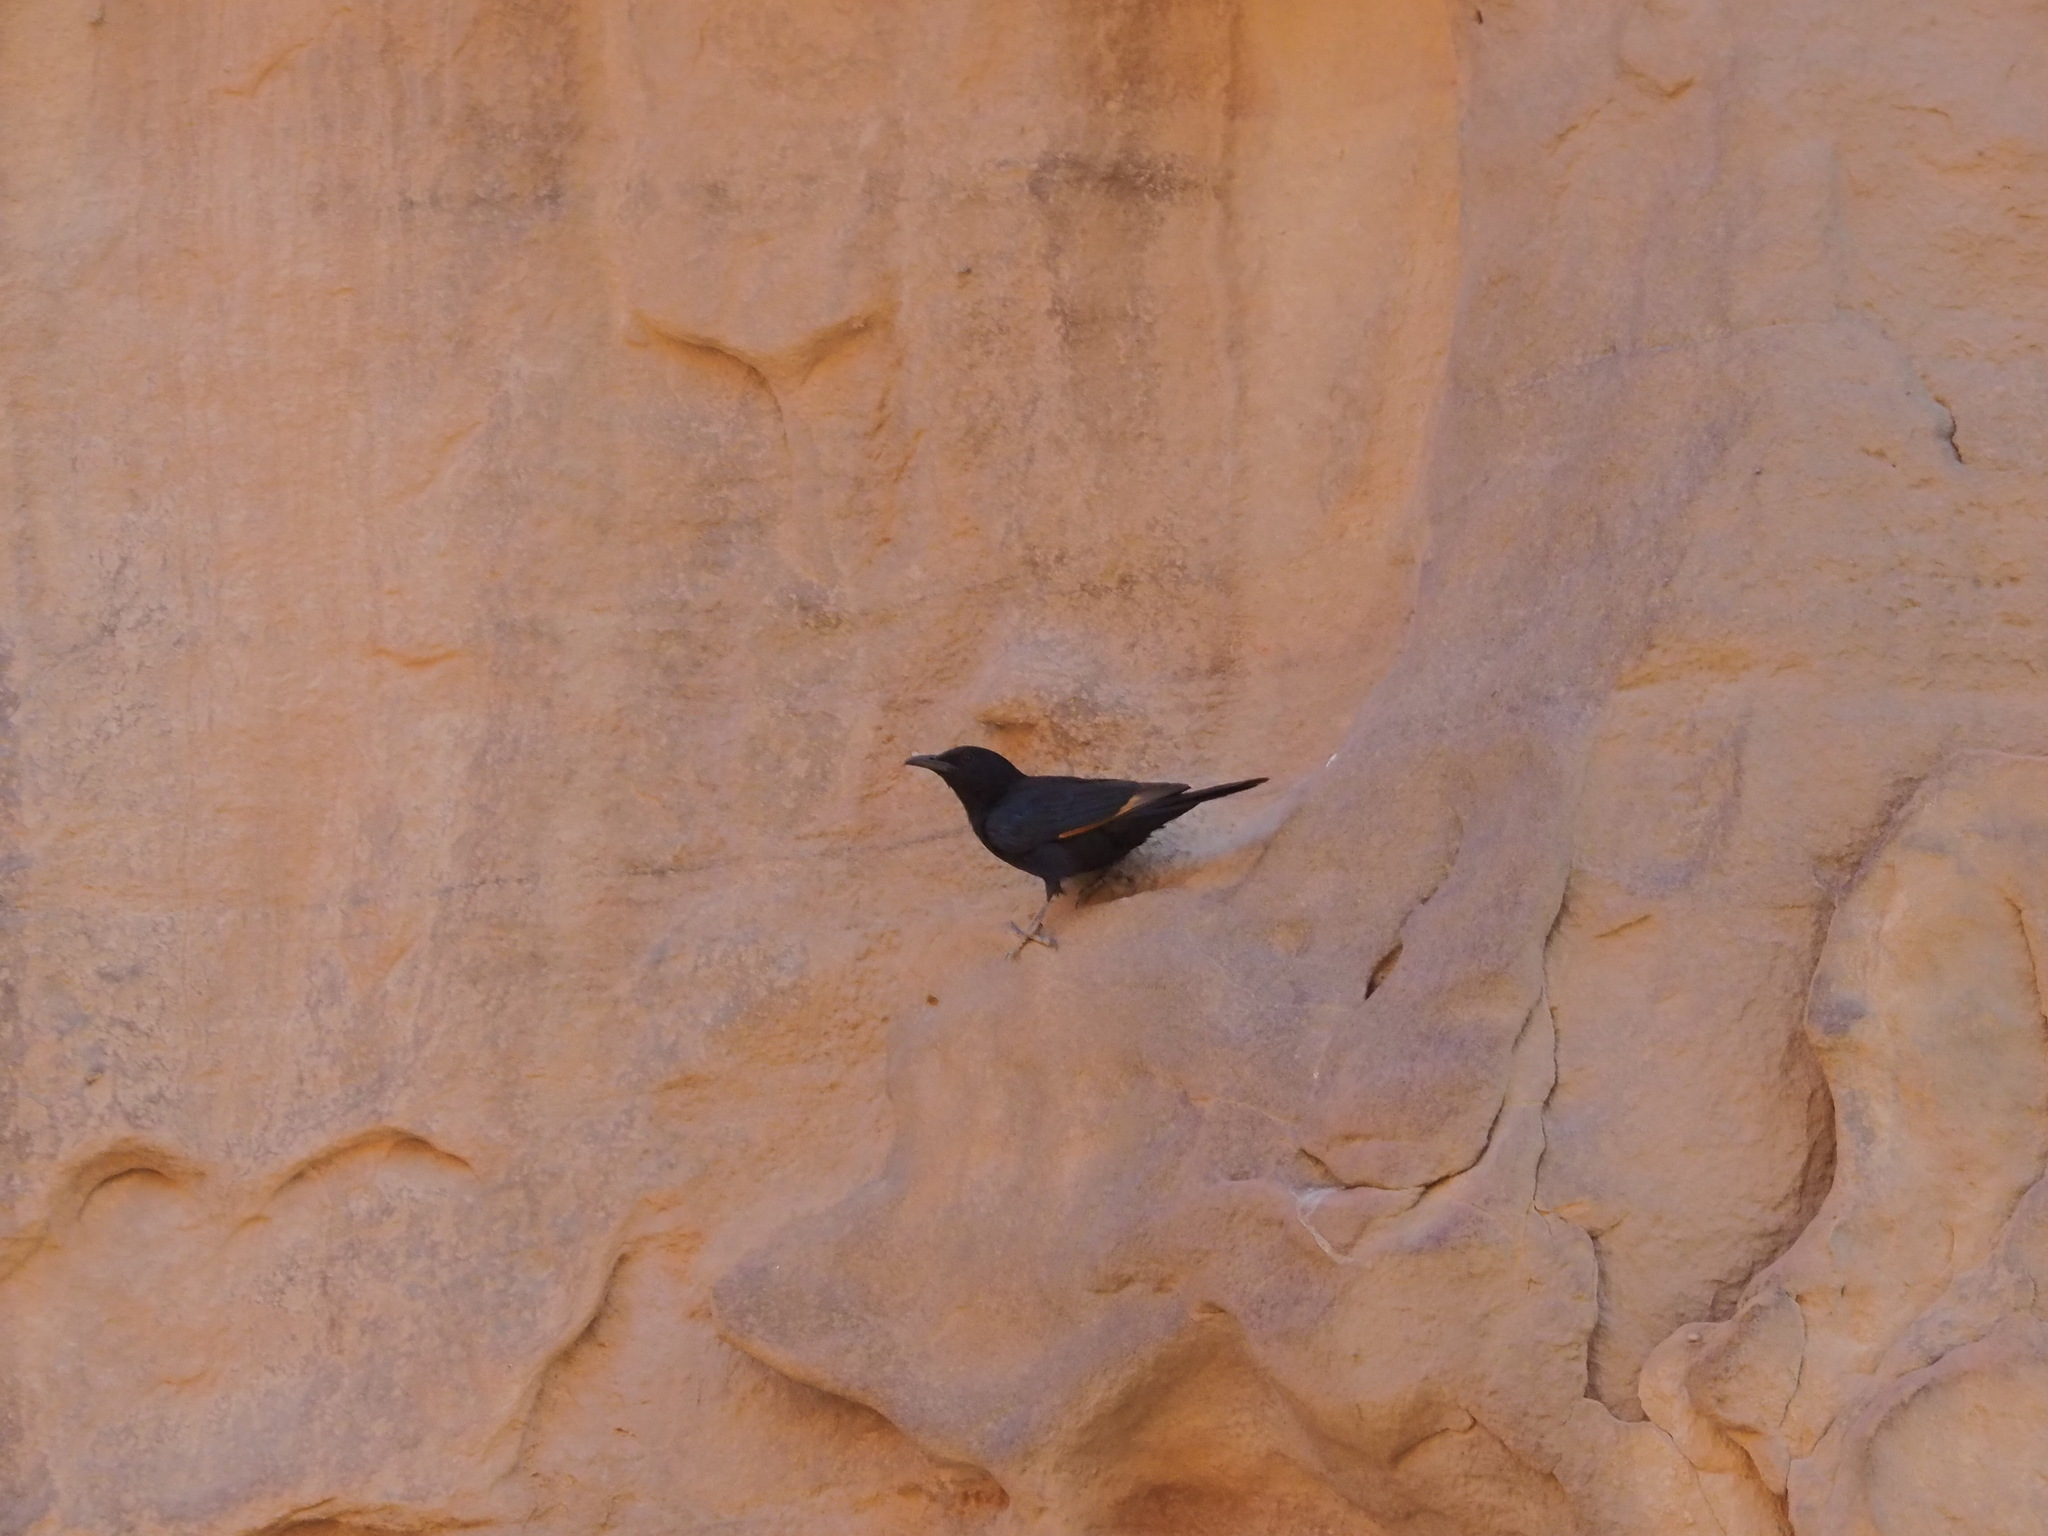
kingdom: Animalia
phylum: Chordata
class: Aves
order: Passeriformes
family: Sturnidae
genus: Onychognathus
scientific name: Onychognathus tristramii
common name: Tristram's starling
